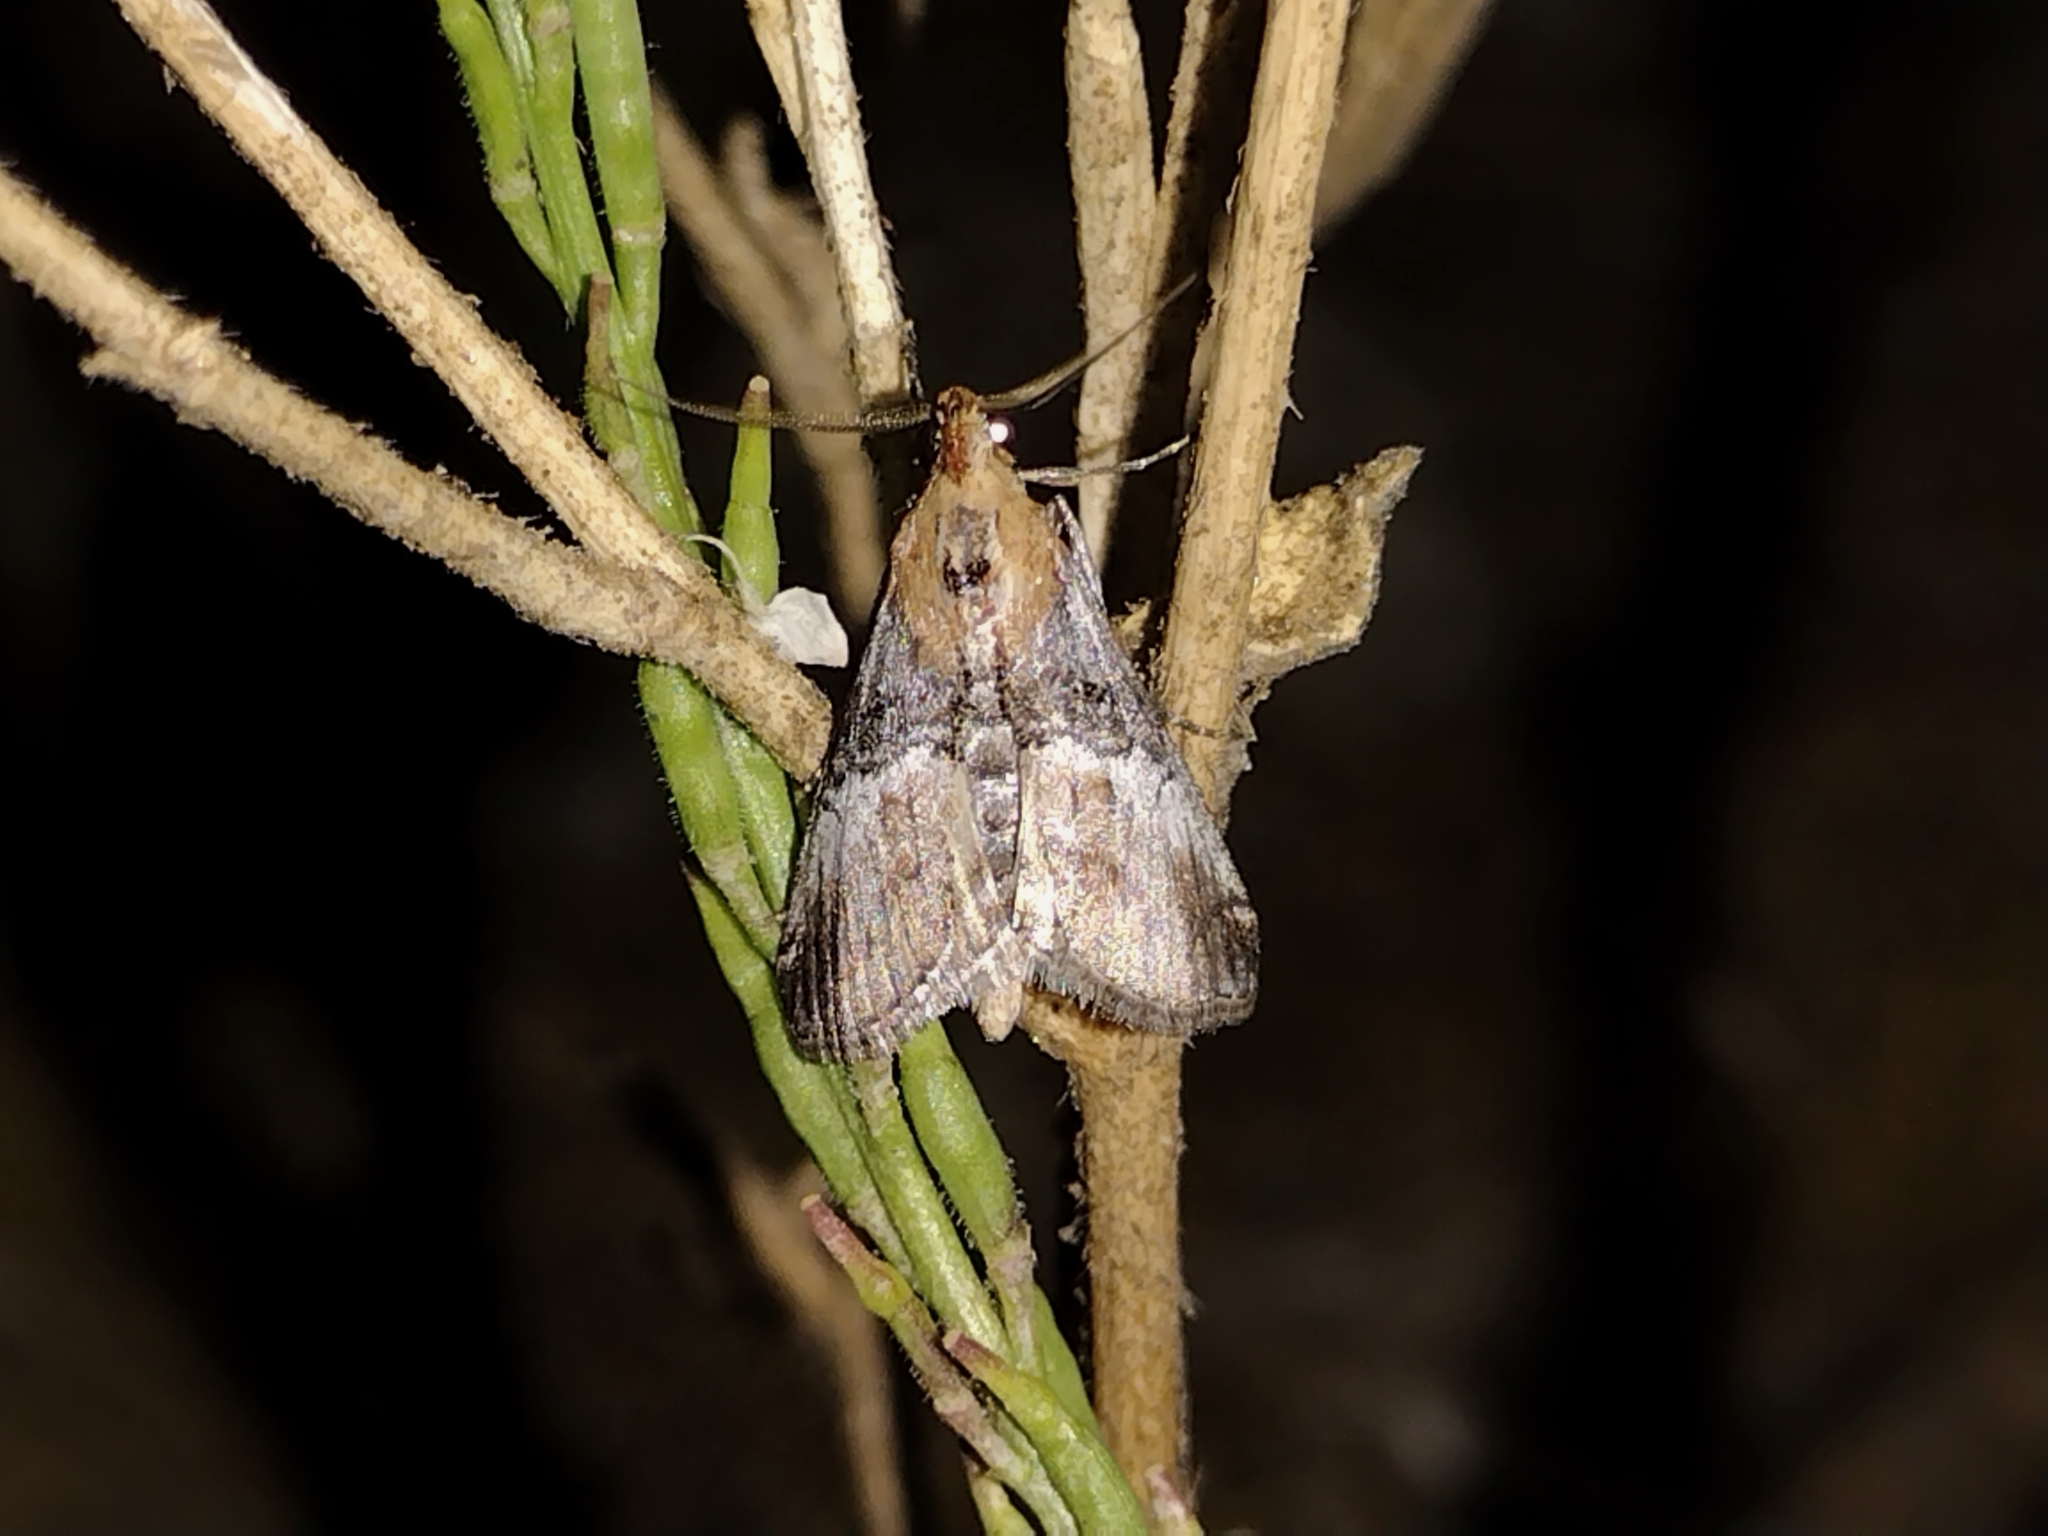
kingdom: Animalia
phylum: Arthropoda
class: Insecta
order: Lepidoptera
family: Pyralidae
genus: Toripalpus
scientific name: Toripalpus trabalis
